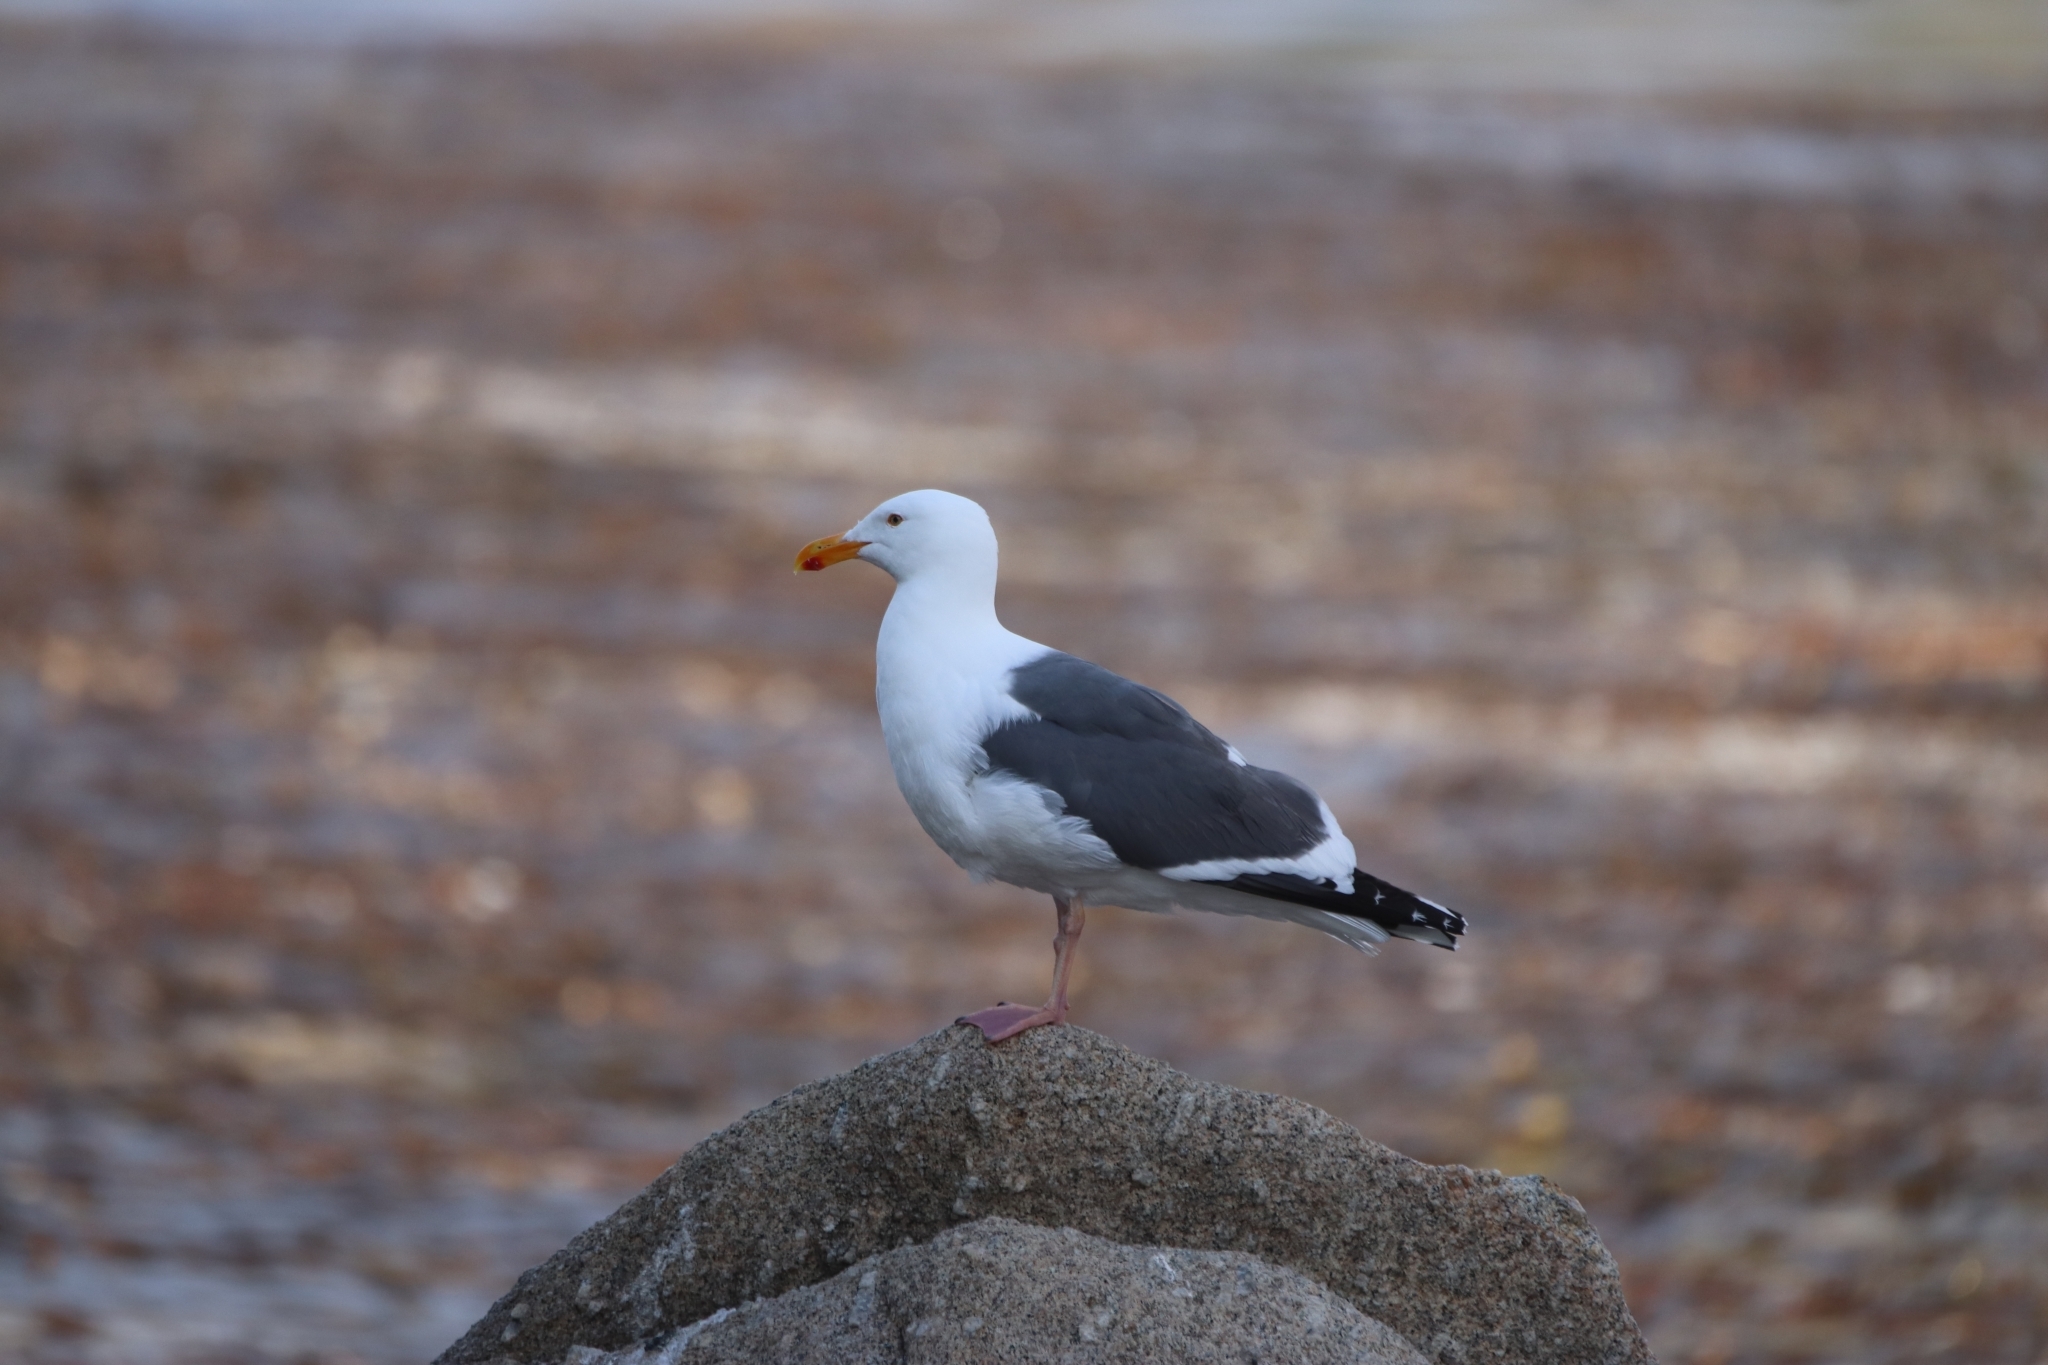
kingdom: Animalia
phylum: Chordata
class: Aves
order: Charadriiformes
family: Laridae
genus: Larus
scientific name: Larus occidentalis
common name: Western gull
